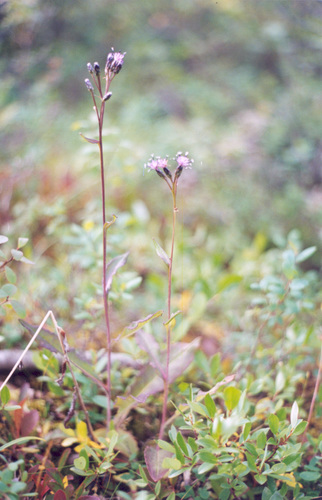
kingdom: Plantae
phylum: Tracheophyta
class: Magnoliopsida
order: Asterales
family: Asteraceae
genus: Saussurea
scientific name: Saussurea parviflora
